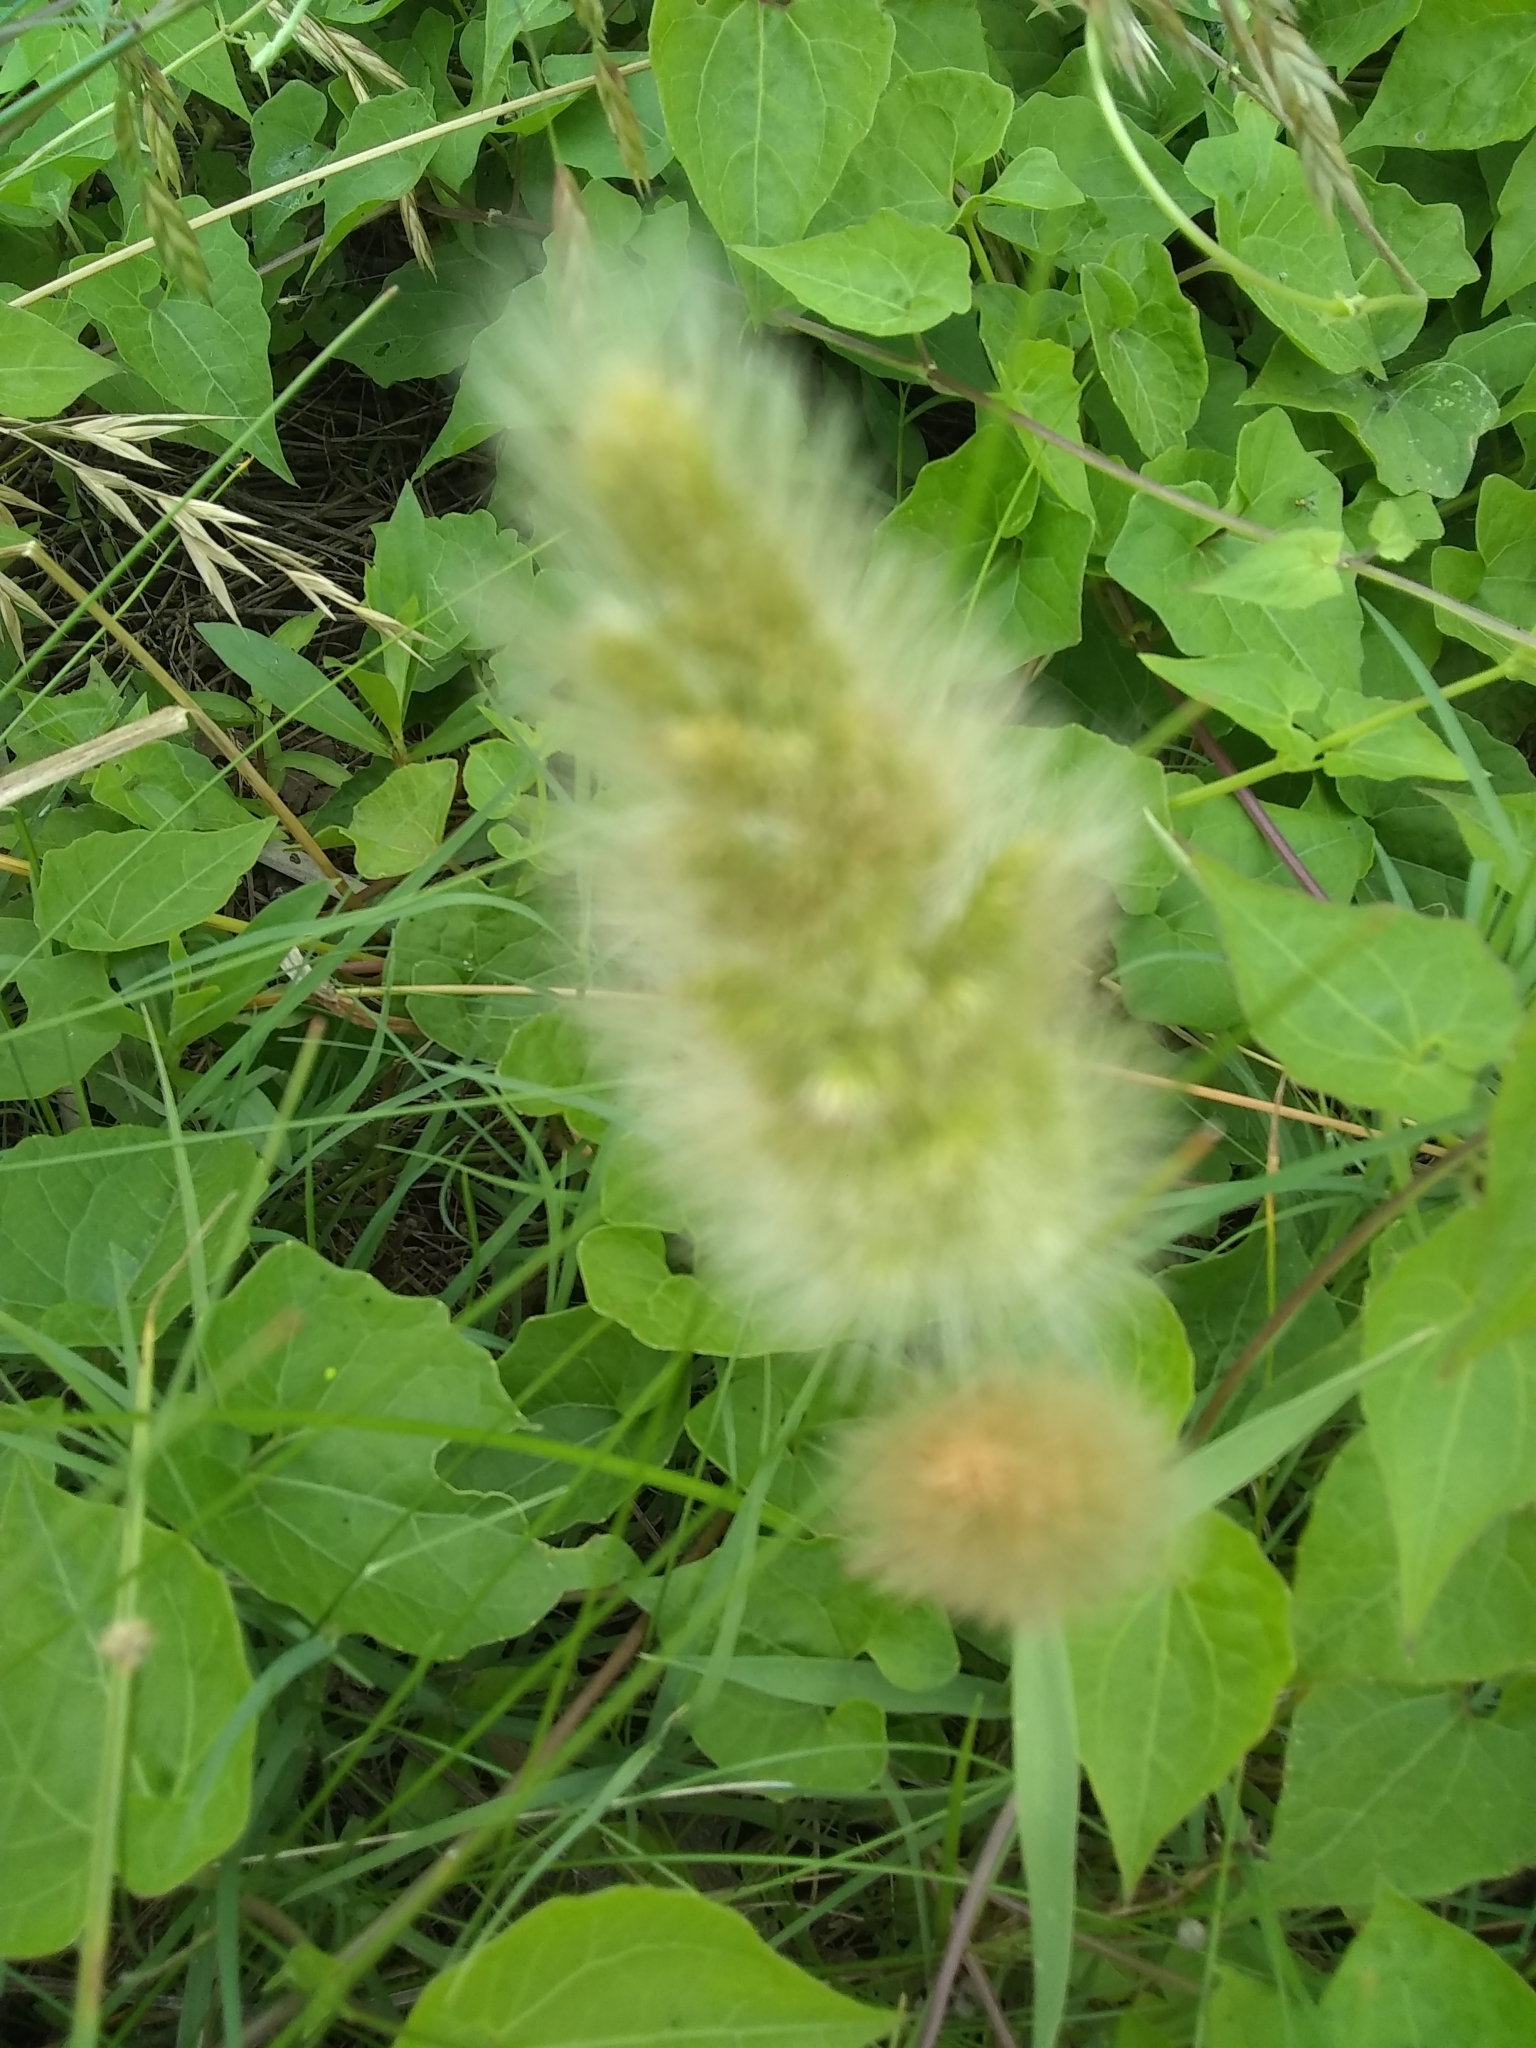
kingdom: Plantae
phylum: Tracheophyta
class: Liliopsida
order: Poales
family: Poaceae
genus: Polypogon
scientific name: Polypogon monspeliensis
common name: Annual rabbitsfoot grass
